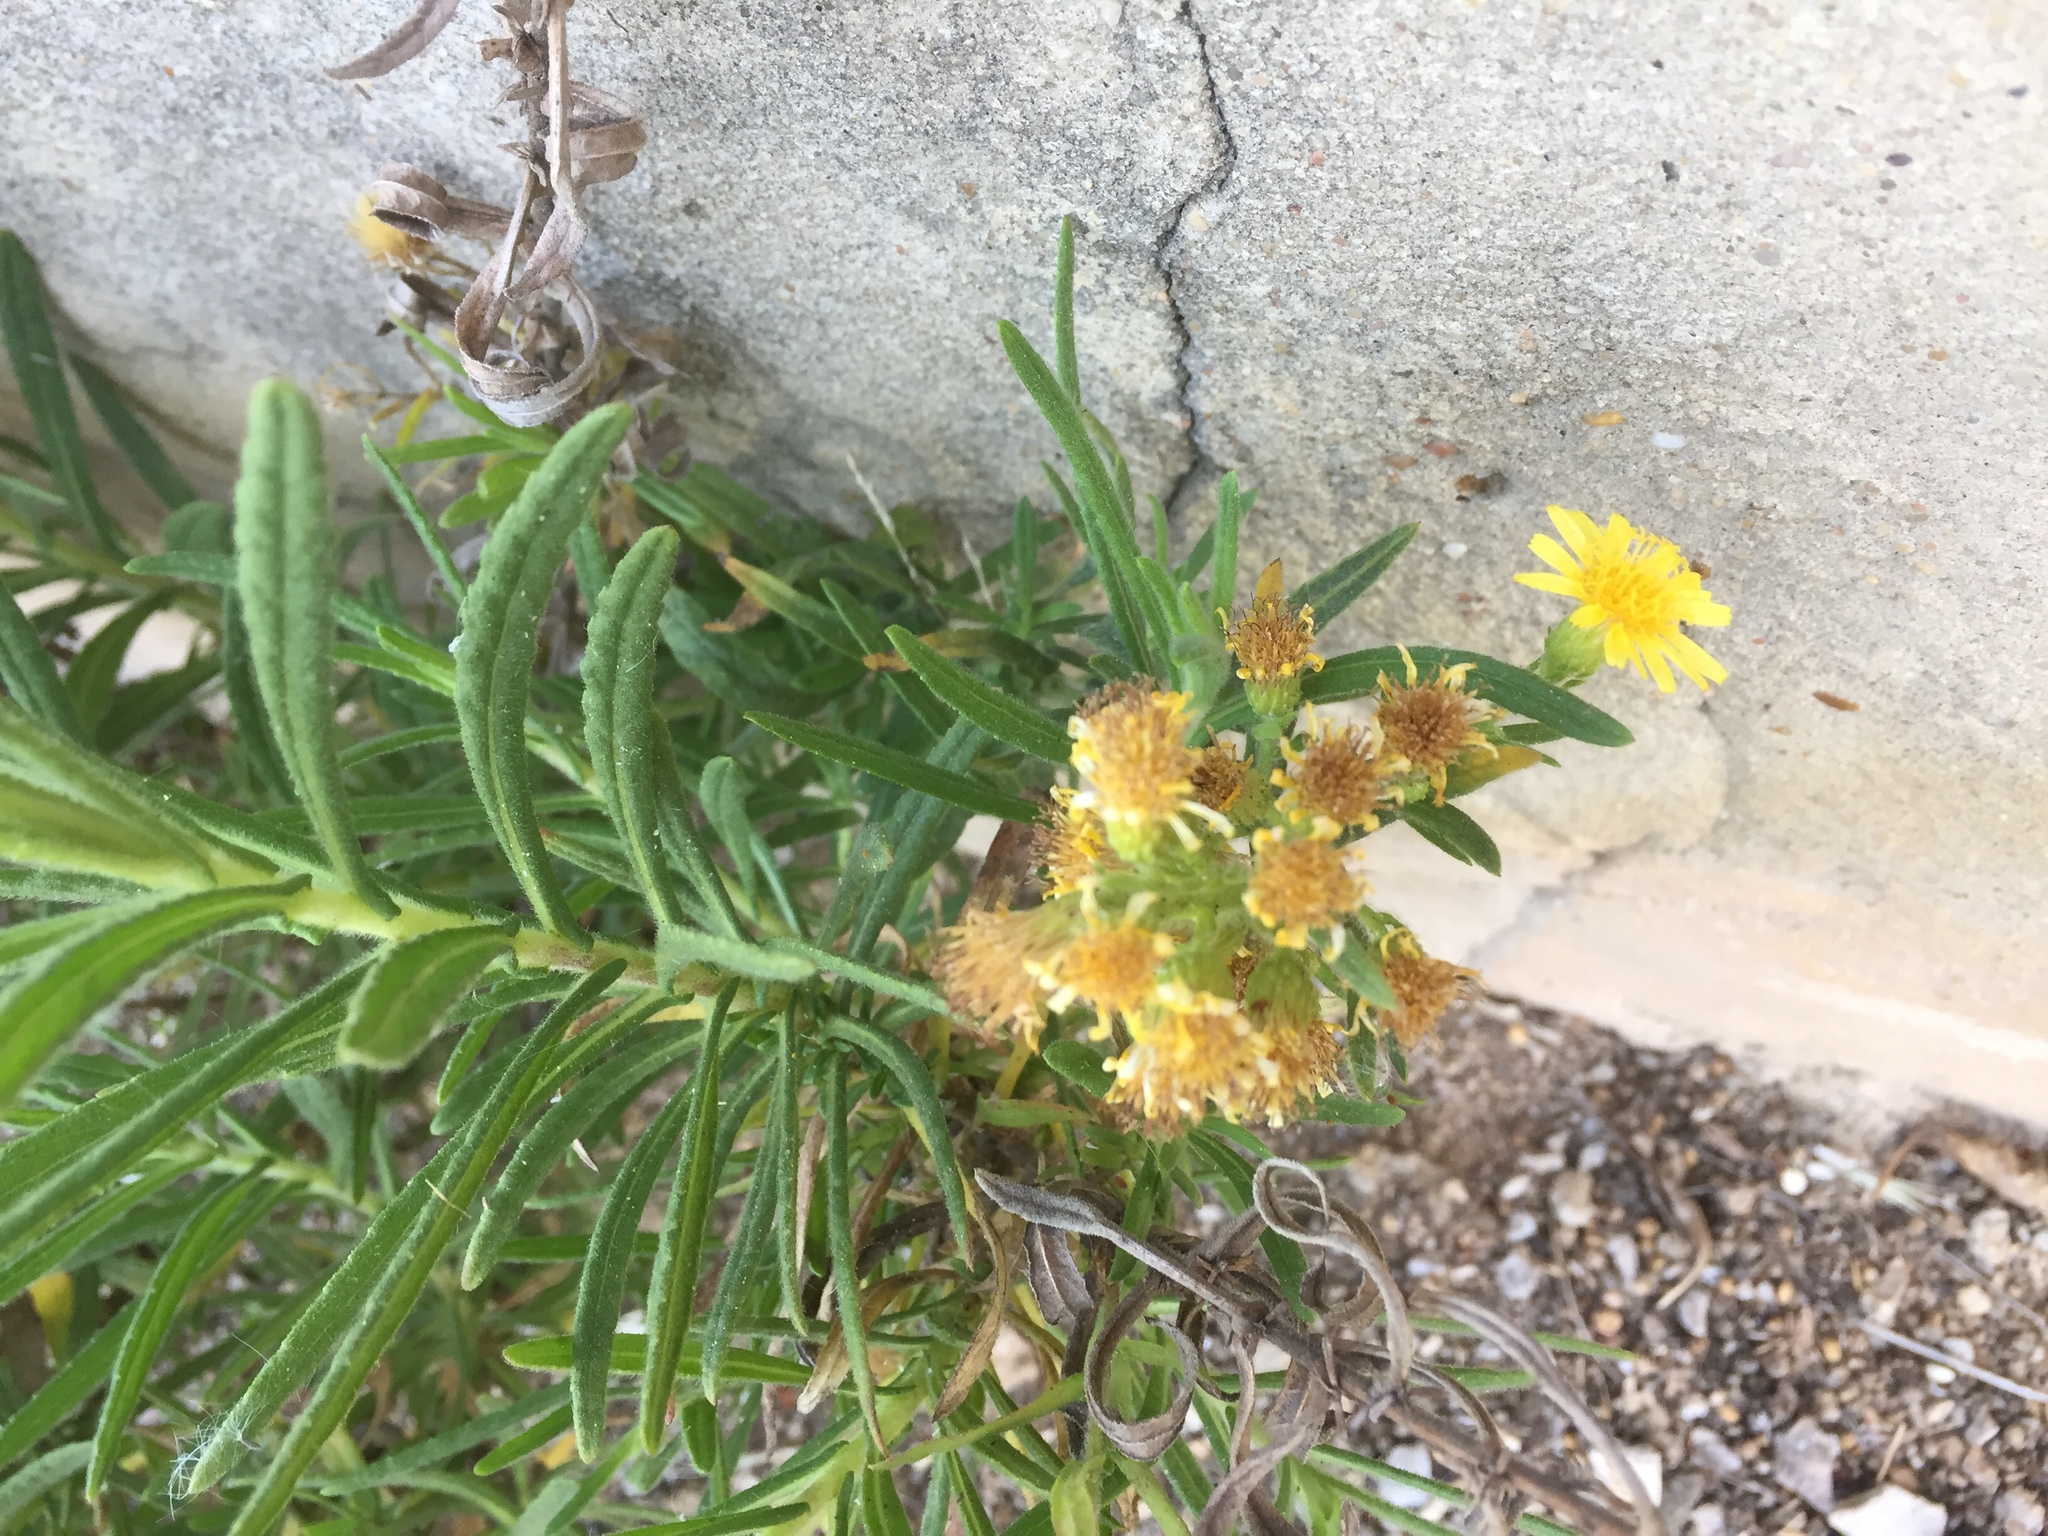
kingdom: Plantae
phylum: Tracheophyta
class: Magnoliopsida
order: Asterales
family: Asteraceae
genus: Dittrichia
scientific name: Dittrichia viscosa
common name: Woody fleabane
